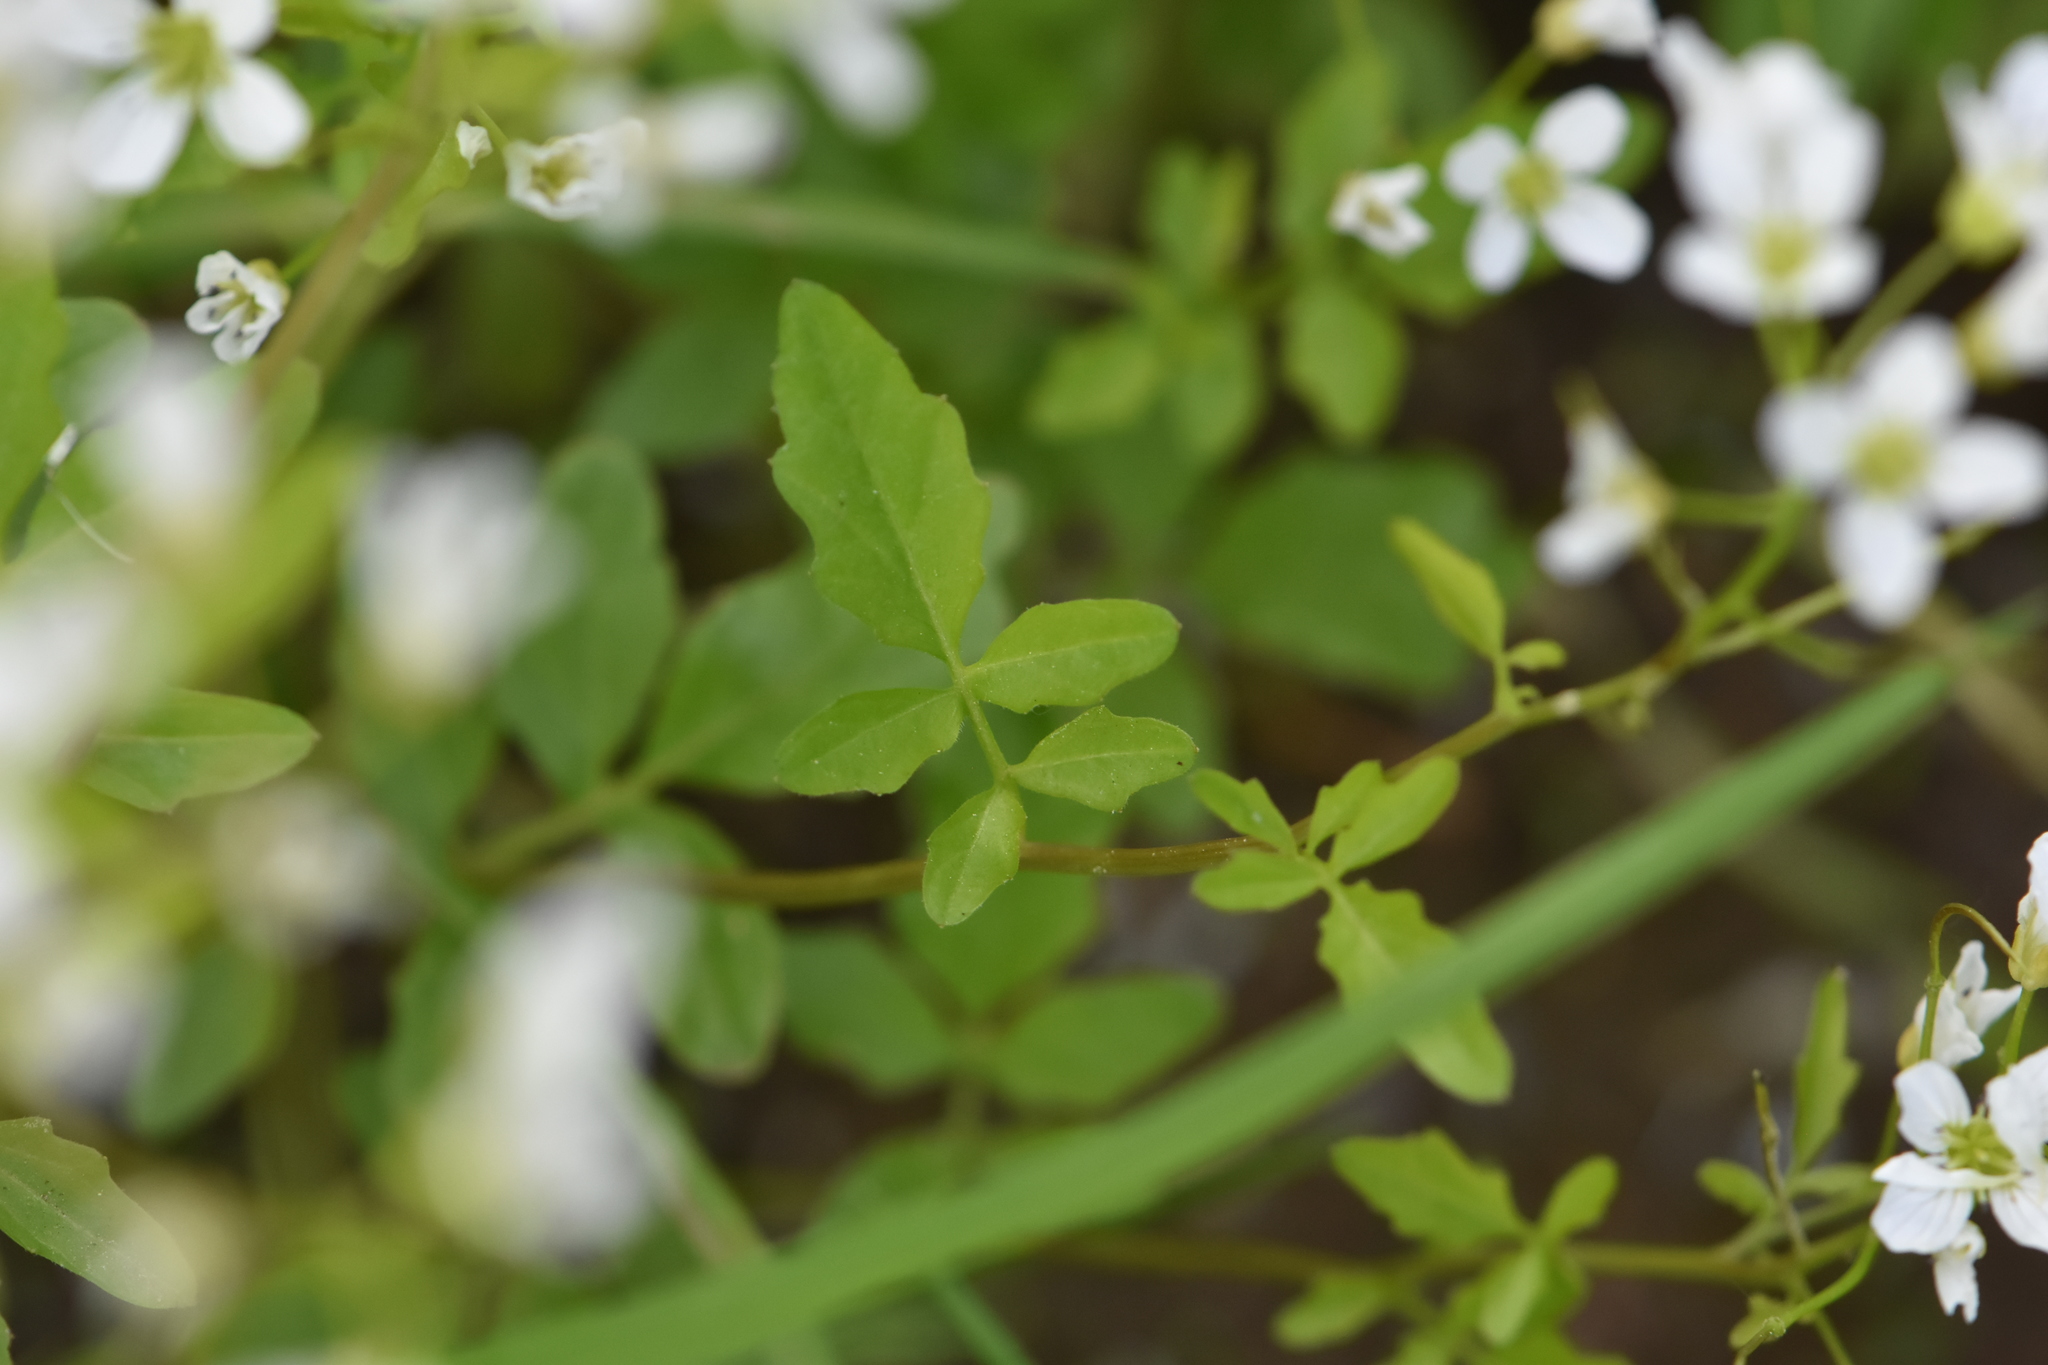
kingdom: Plantae
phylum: Tracheophyta
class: Magnoliopsida
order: Brassicales
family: Brassicaceae
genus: Cardamine
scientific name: Cardamine amara
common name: Large bitter-cress
